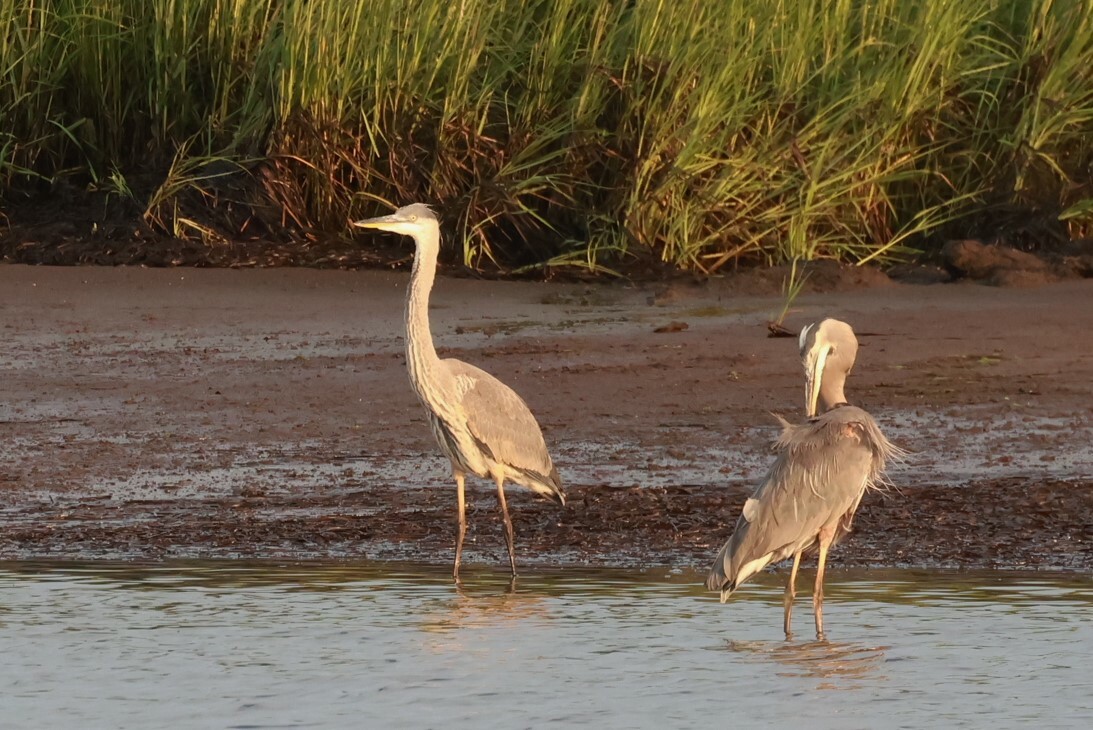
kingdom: Animalia
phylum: Chordata
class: Aves
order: Pelecaniformes
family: Ardeidae
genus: Ardea
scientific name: Ardea herodias
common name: Great blue heron
